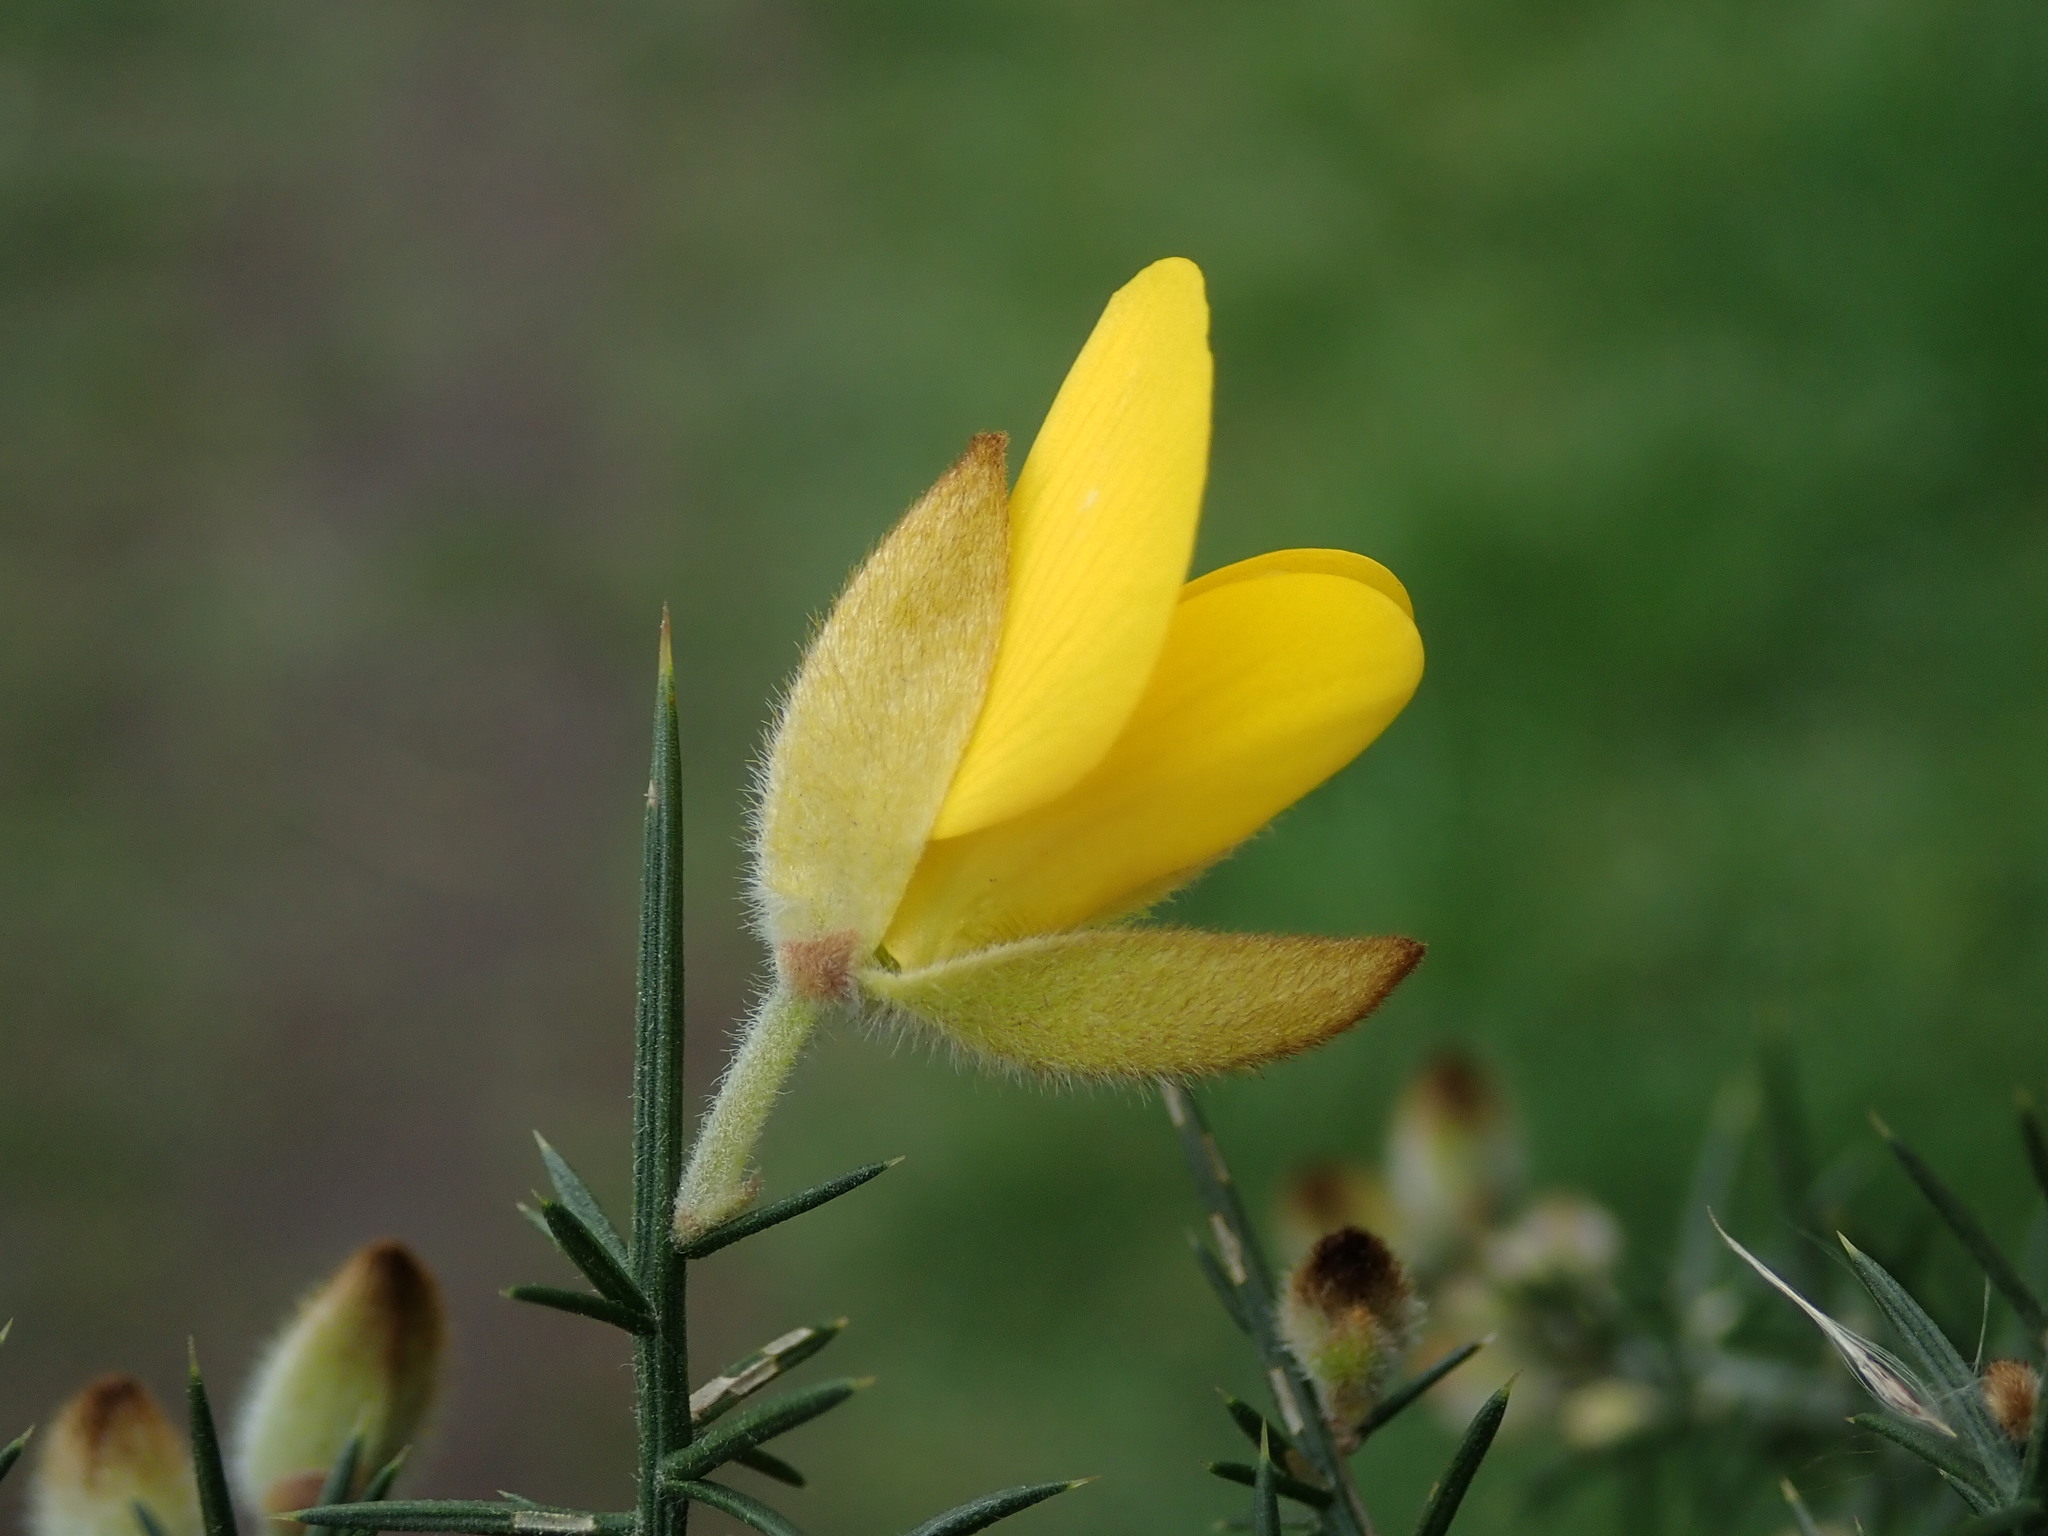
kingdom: Plantae
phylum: Tracheophyta
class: Magnoliopsida
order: Fabales
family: Fabaceae
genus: Ulex
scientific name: Ulex europaeus
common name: Common gorse
